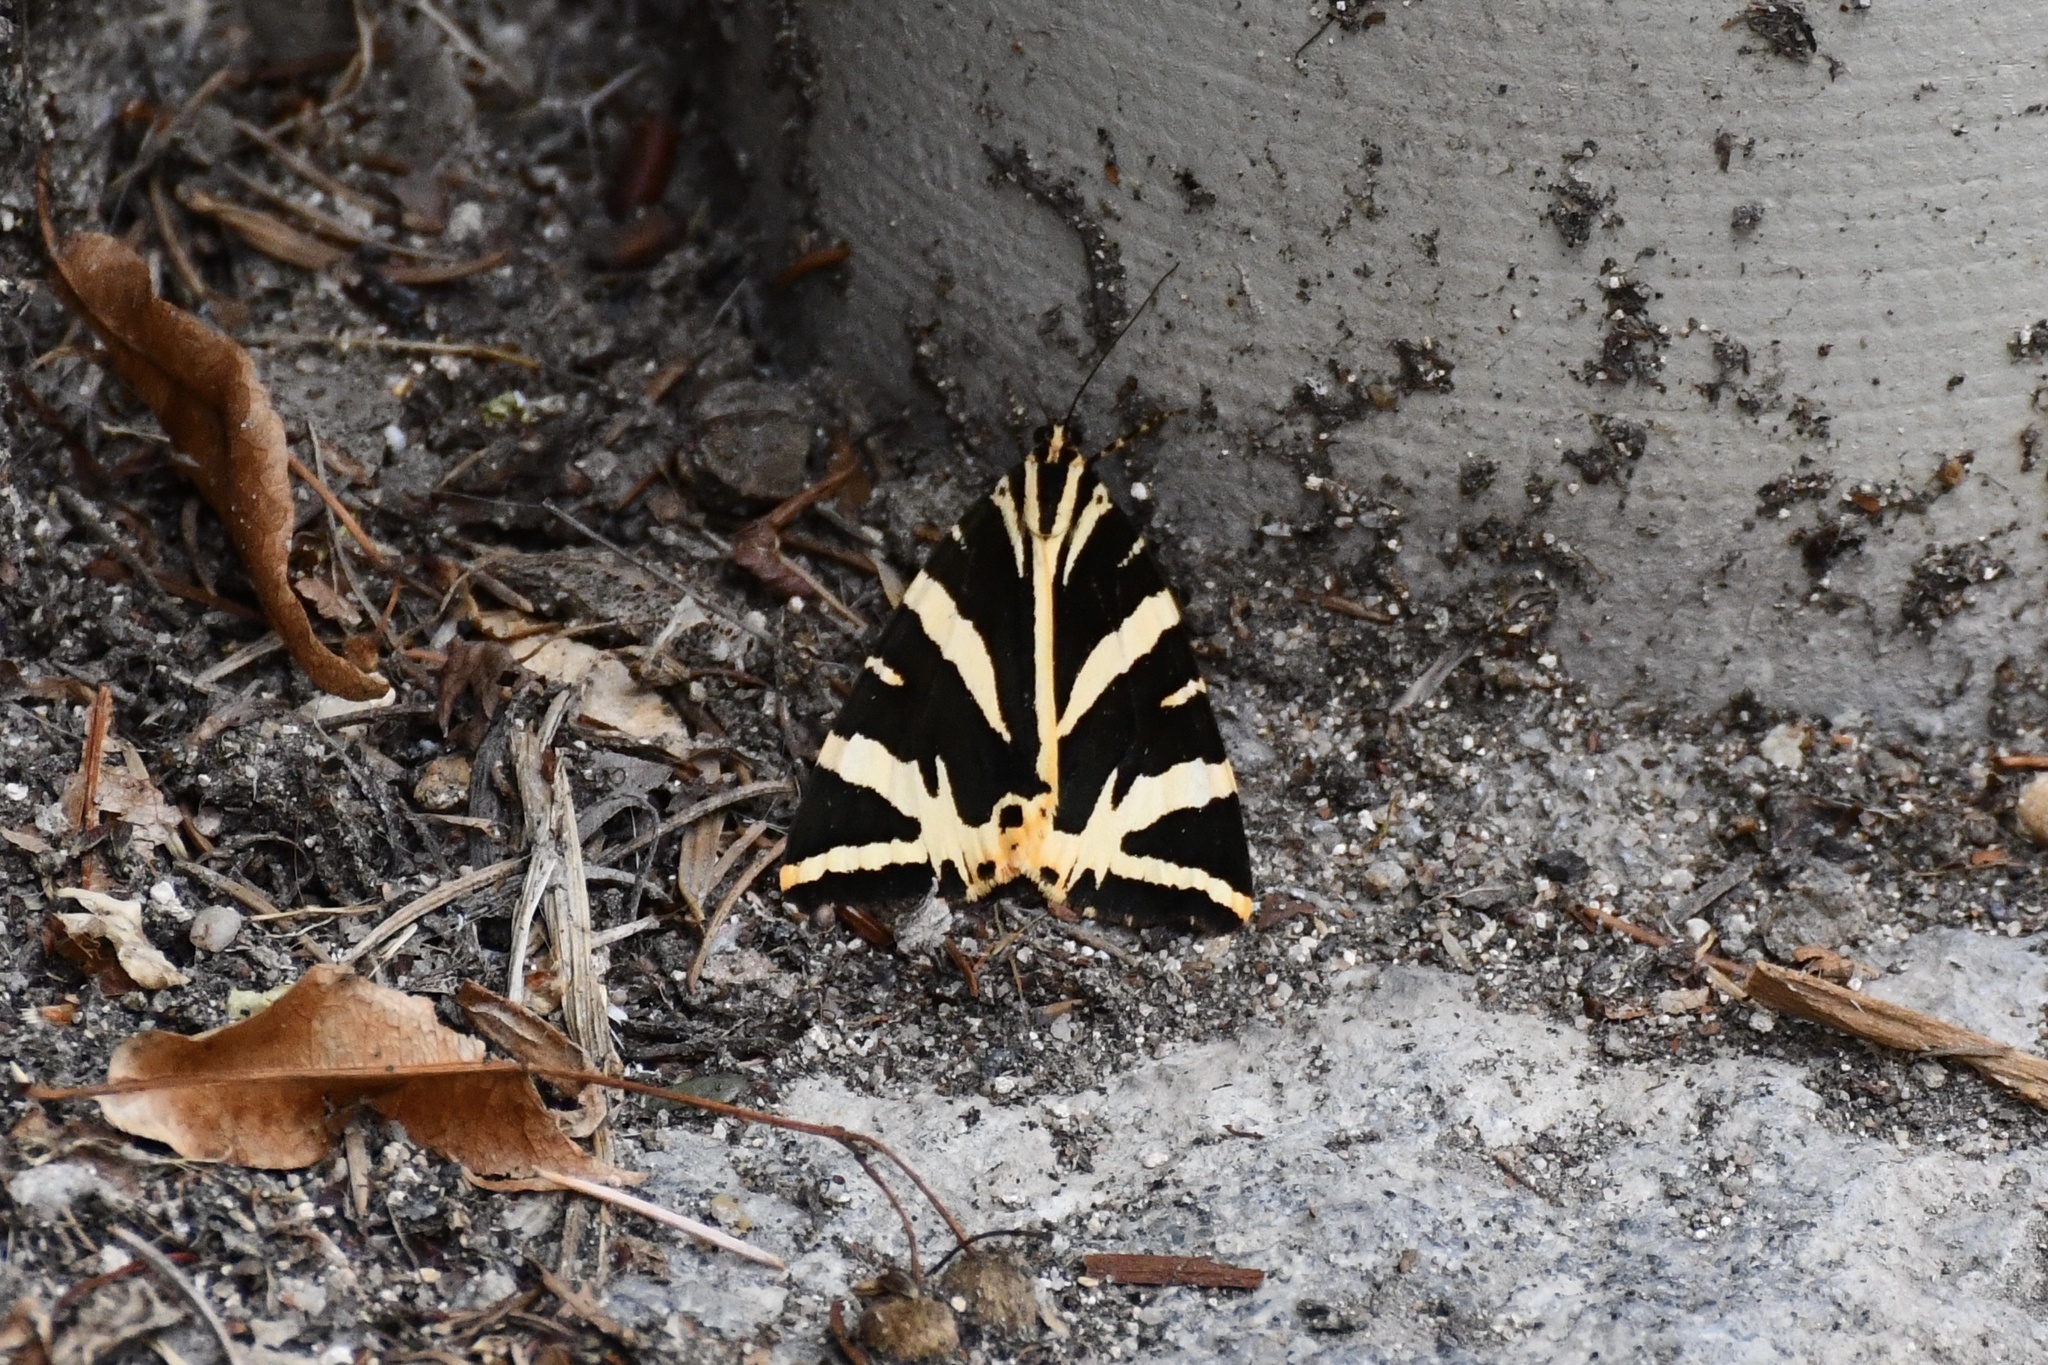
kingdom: Animalia
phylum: Arthropoda
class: Insecta
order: Lepidoptera
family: Erebidae
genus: Euplagia
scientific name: Euplagia quadripunctaria
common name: Jersey tiger
